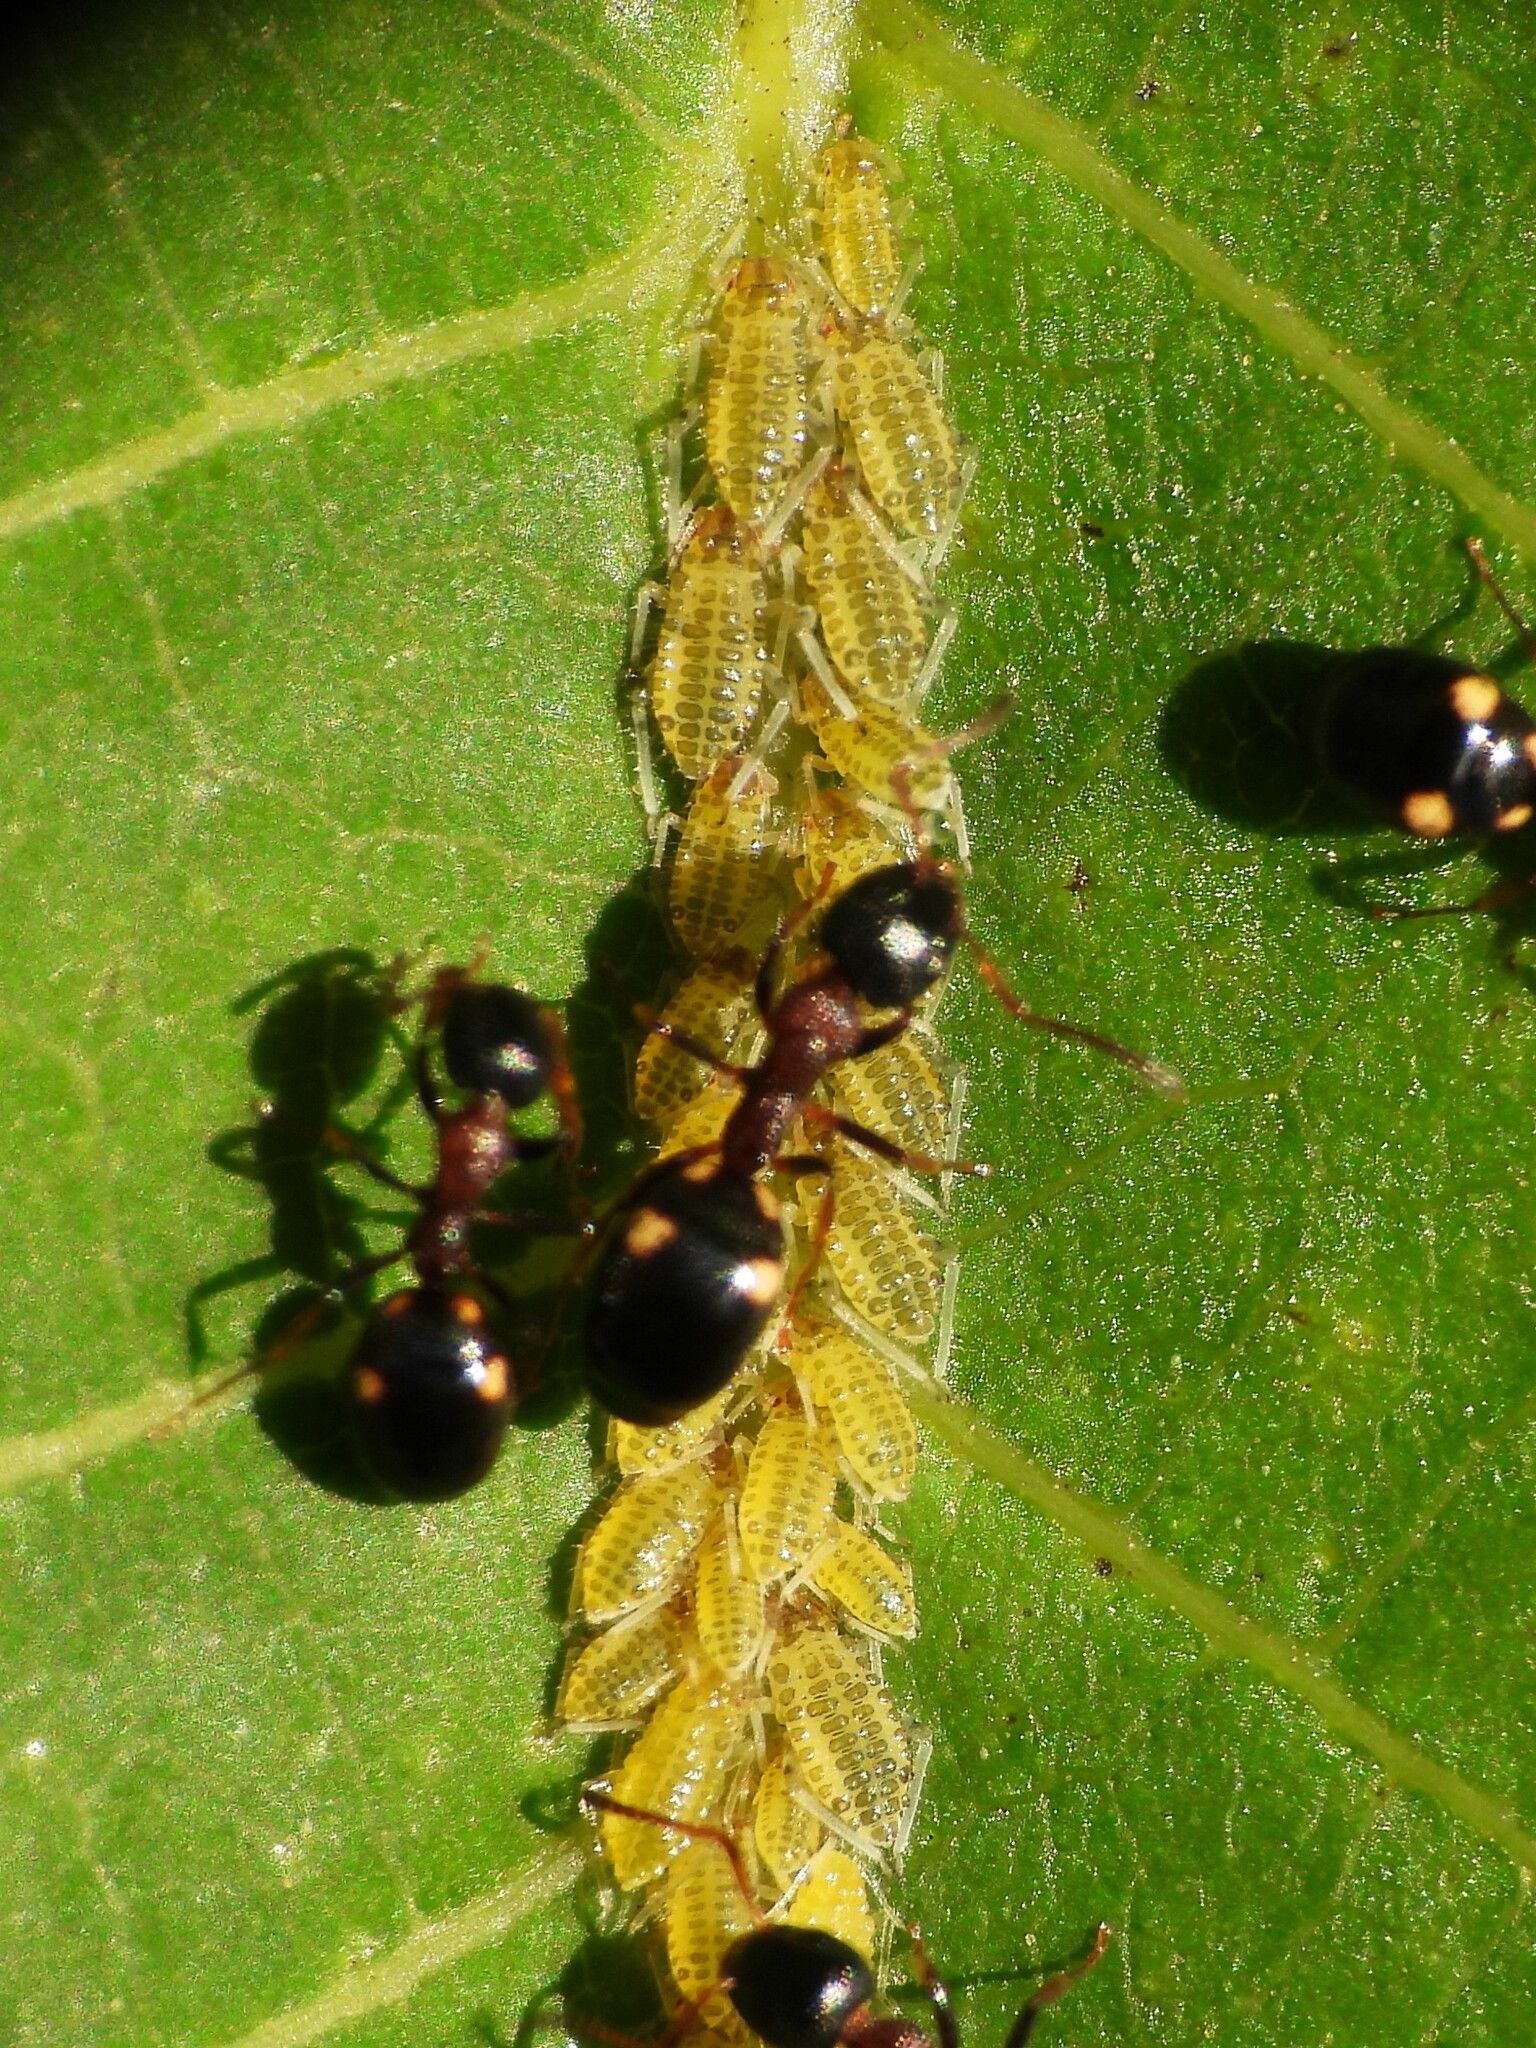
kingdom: Animalia
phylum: Arthropoda
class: Insecta
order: Hemiptera
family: Aphididae
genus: Panaphis
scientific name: Panaphis juglandis
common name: Large walnut aphid
